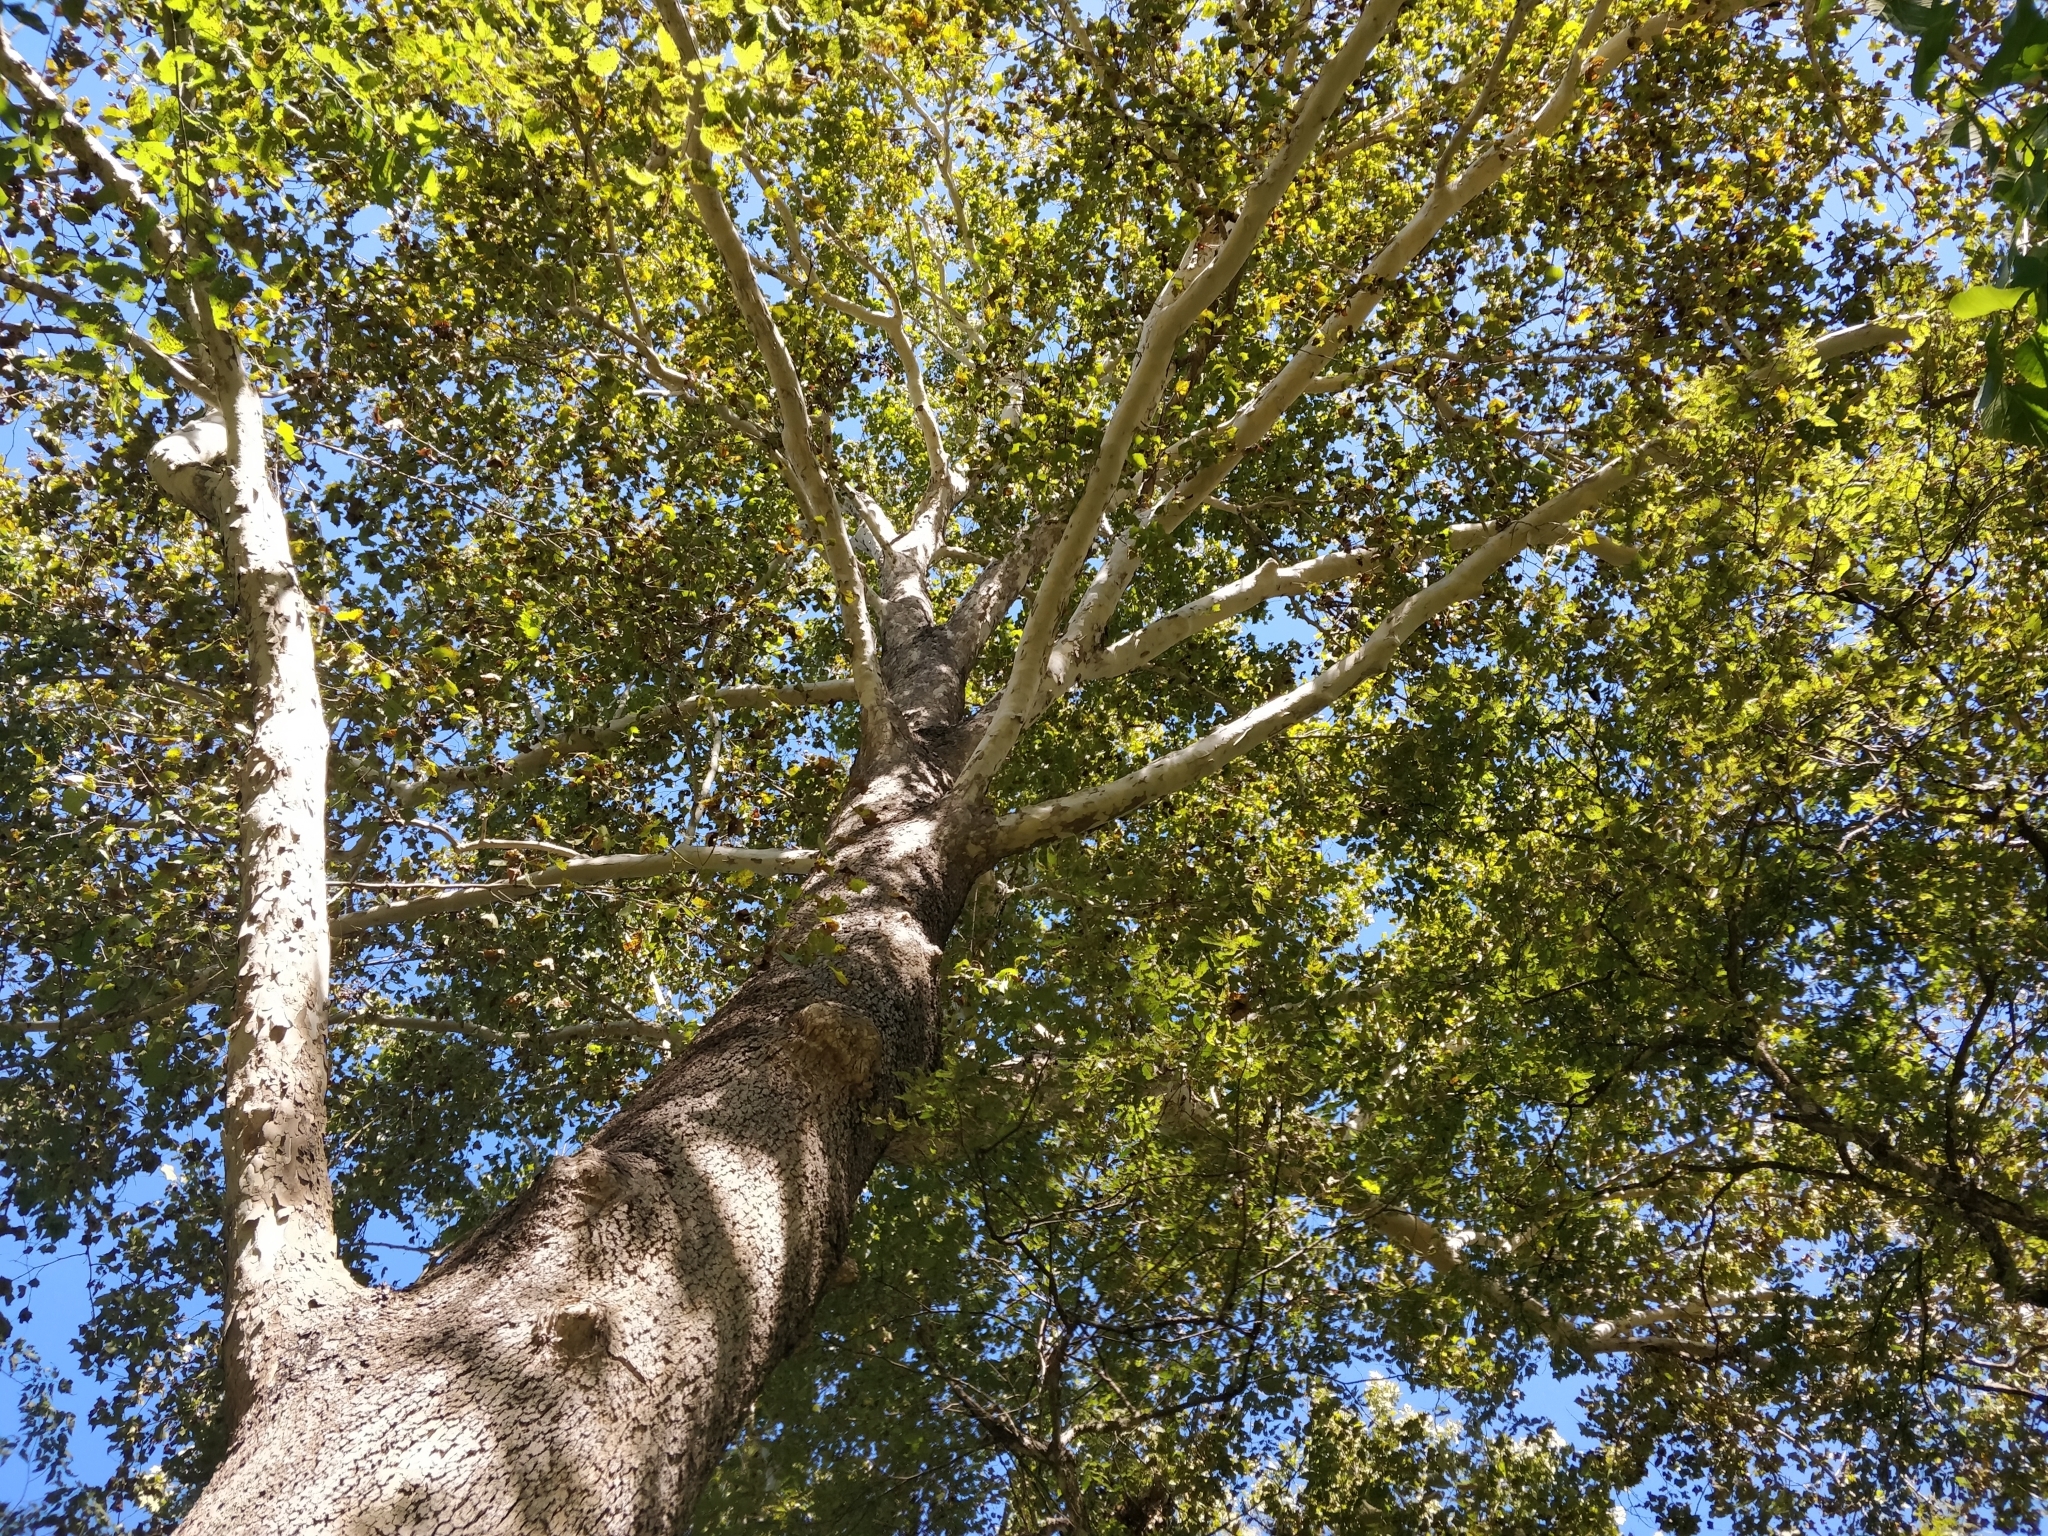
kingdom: Plantae
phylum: Tracheophyta
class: Magnoliopsida
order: Proteales
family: Platanaceae
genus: Platanus
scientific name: Platanus occidentalis
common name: American sycamore
